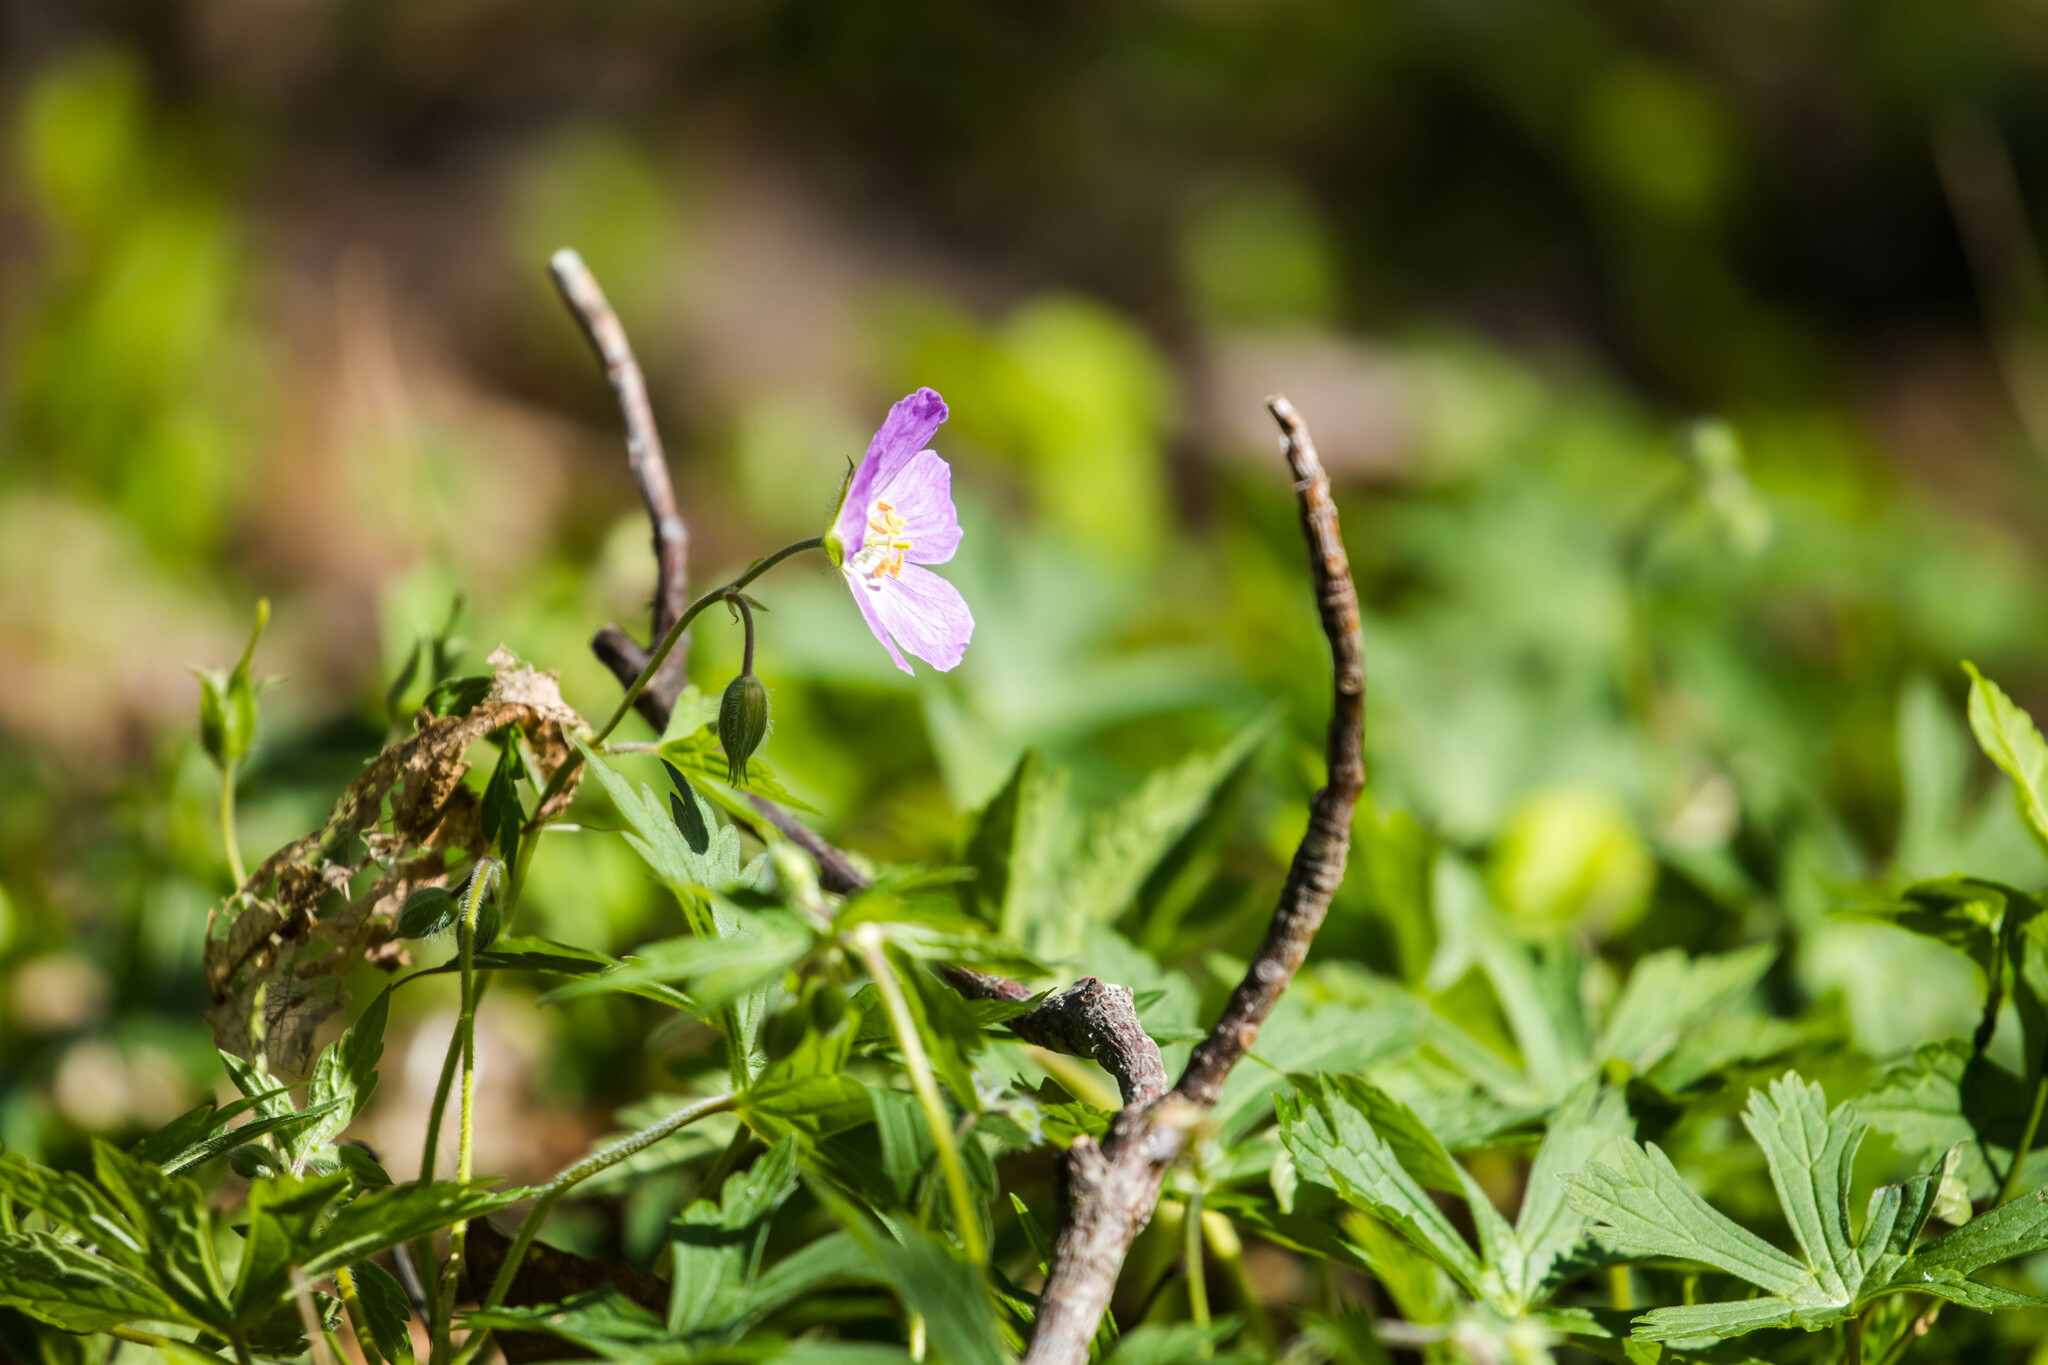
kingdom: Plantae
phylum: Tracheophyta
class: Magnoliopsida
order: Geraniales
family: Geraniaceae
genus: Geranium
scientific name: Geranium maculatum
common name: Spotted geranium
